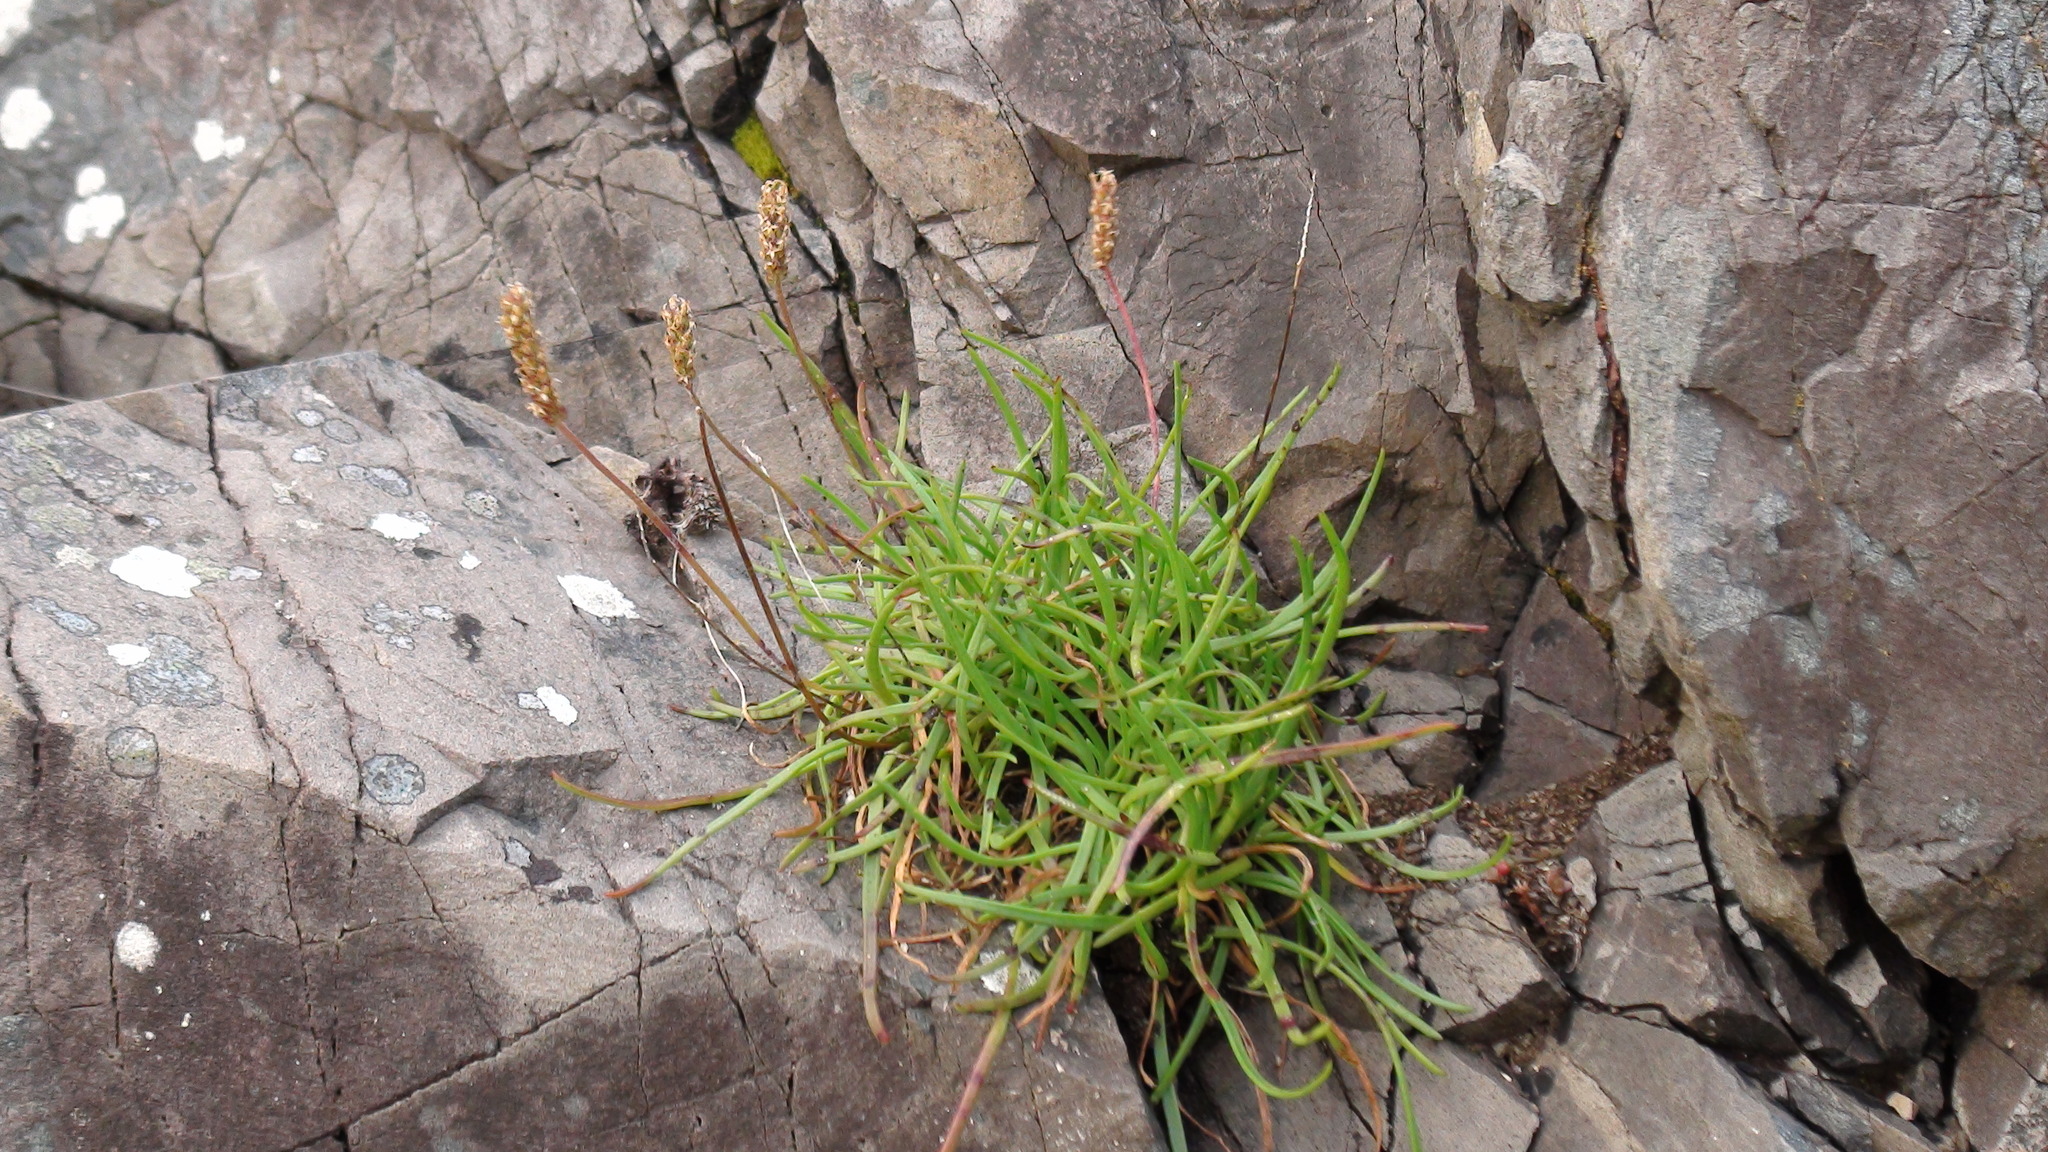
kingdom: Plantae
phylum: Tracheophyta
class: Magnoliopsida
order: Lamiales
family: Plantaginaceae
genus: Plantago
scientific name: Plantago maritima
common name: Sea plantain
